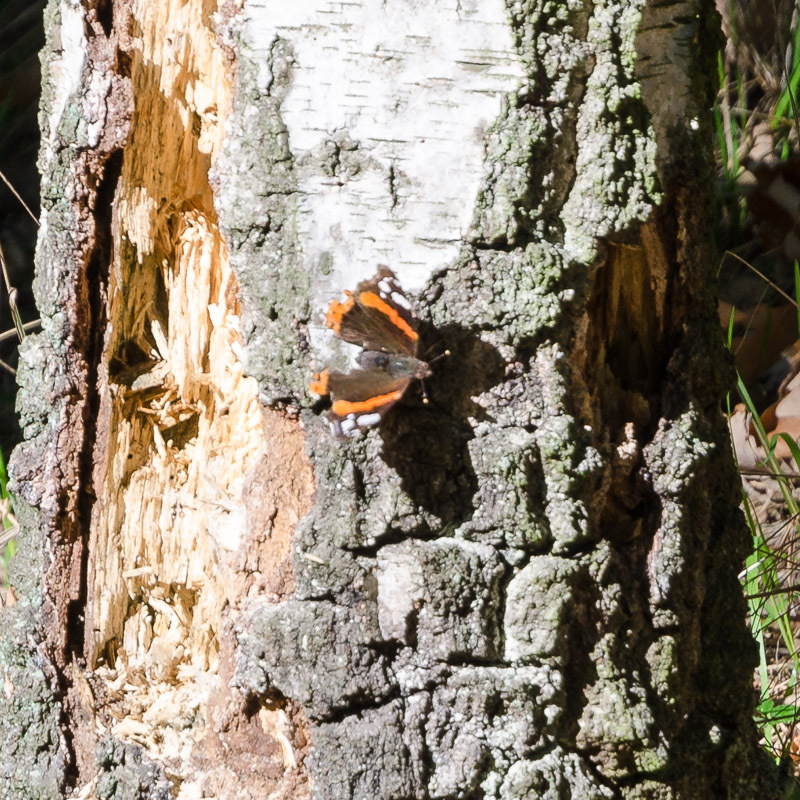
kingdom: Animalia
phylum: Arthropoda
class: Insecta
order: Lepidoptera
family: Nymphalidae
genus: Vanessa
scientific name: Vanessa atalanta
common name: Red admiral
